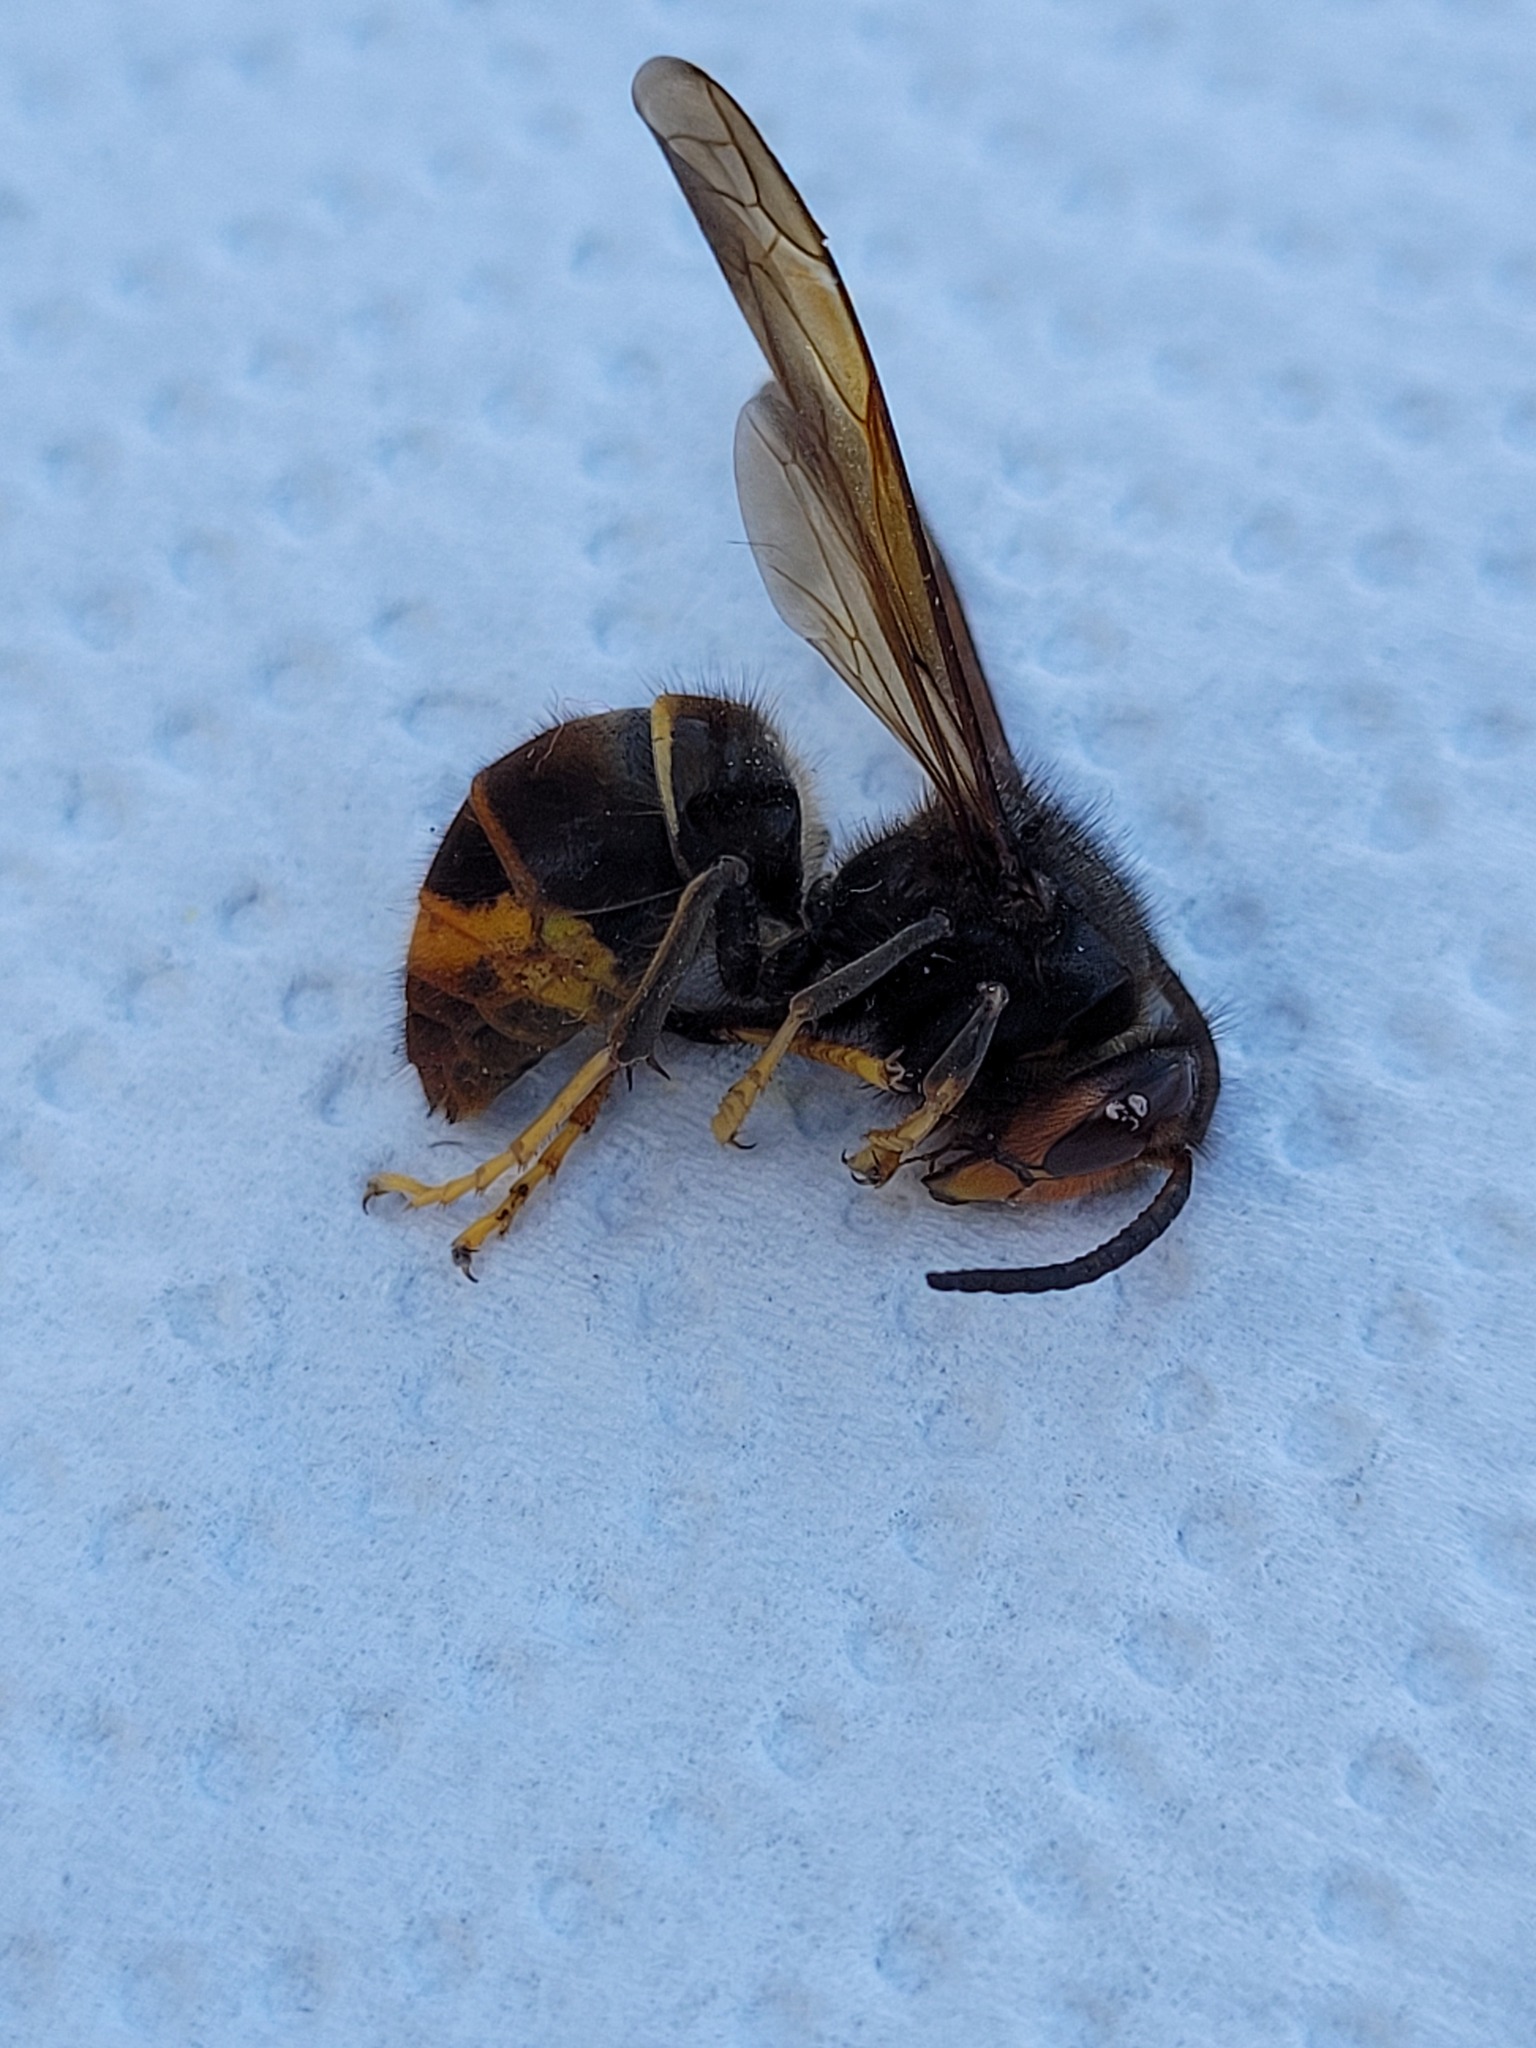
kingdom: Animalia
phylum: Arthropoda
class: Insecta
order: Hymenoptera
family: Vespidae
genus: Vespa
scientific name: Vespa velutina
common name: Asian hornet
